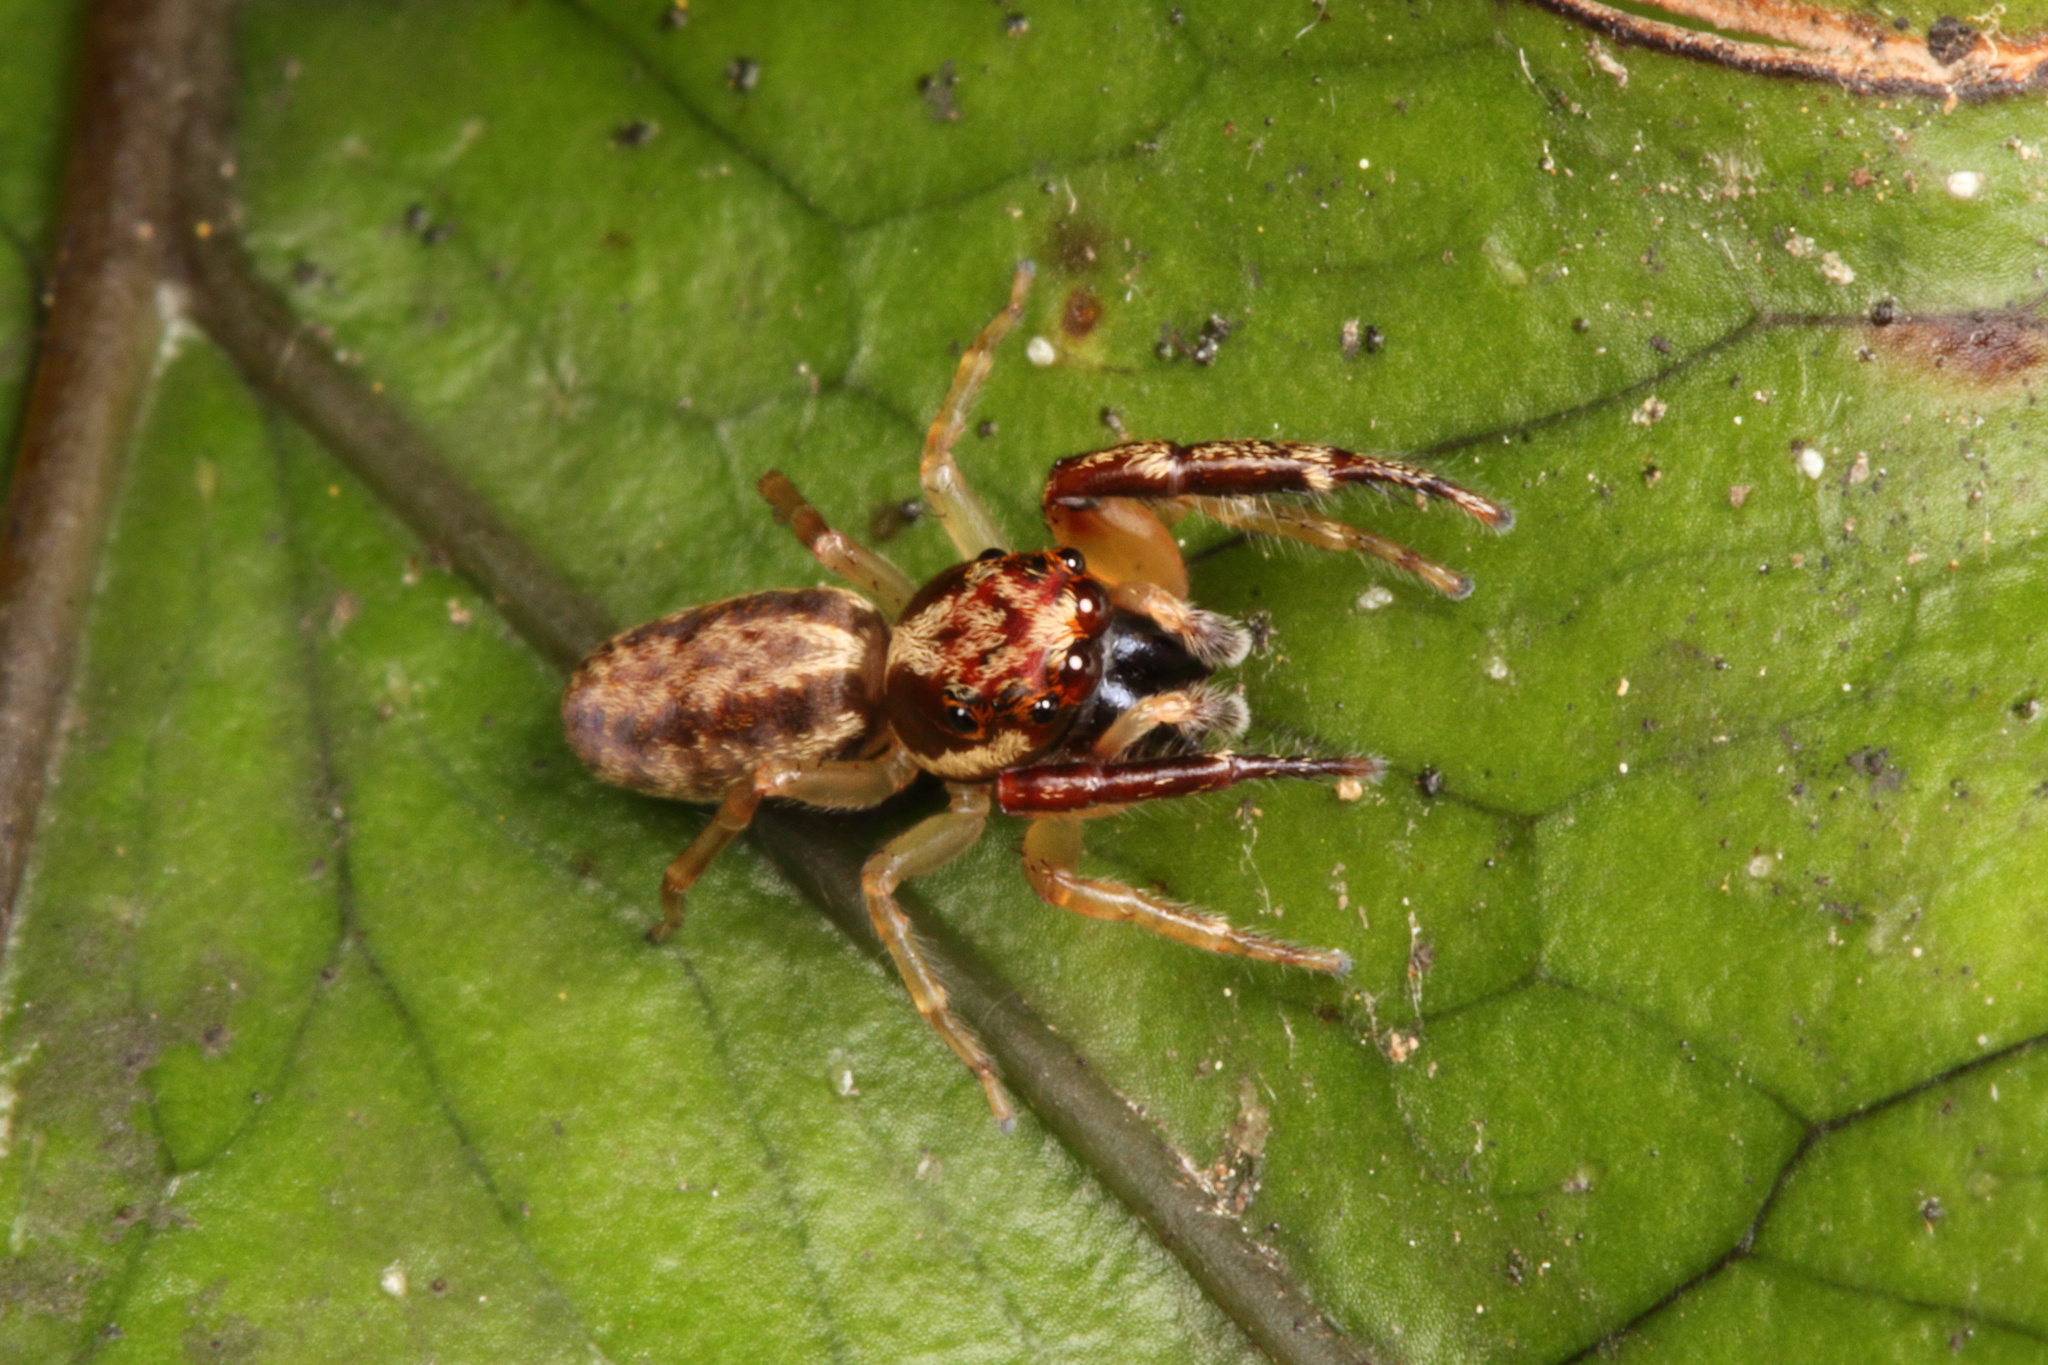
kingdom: Animalia
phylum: Arthropoda
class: Arachnida
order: Araneae
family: Salticidae
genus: Trite
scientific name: Trite mustilina
